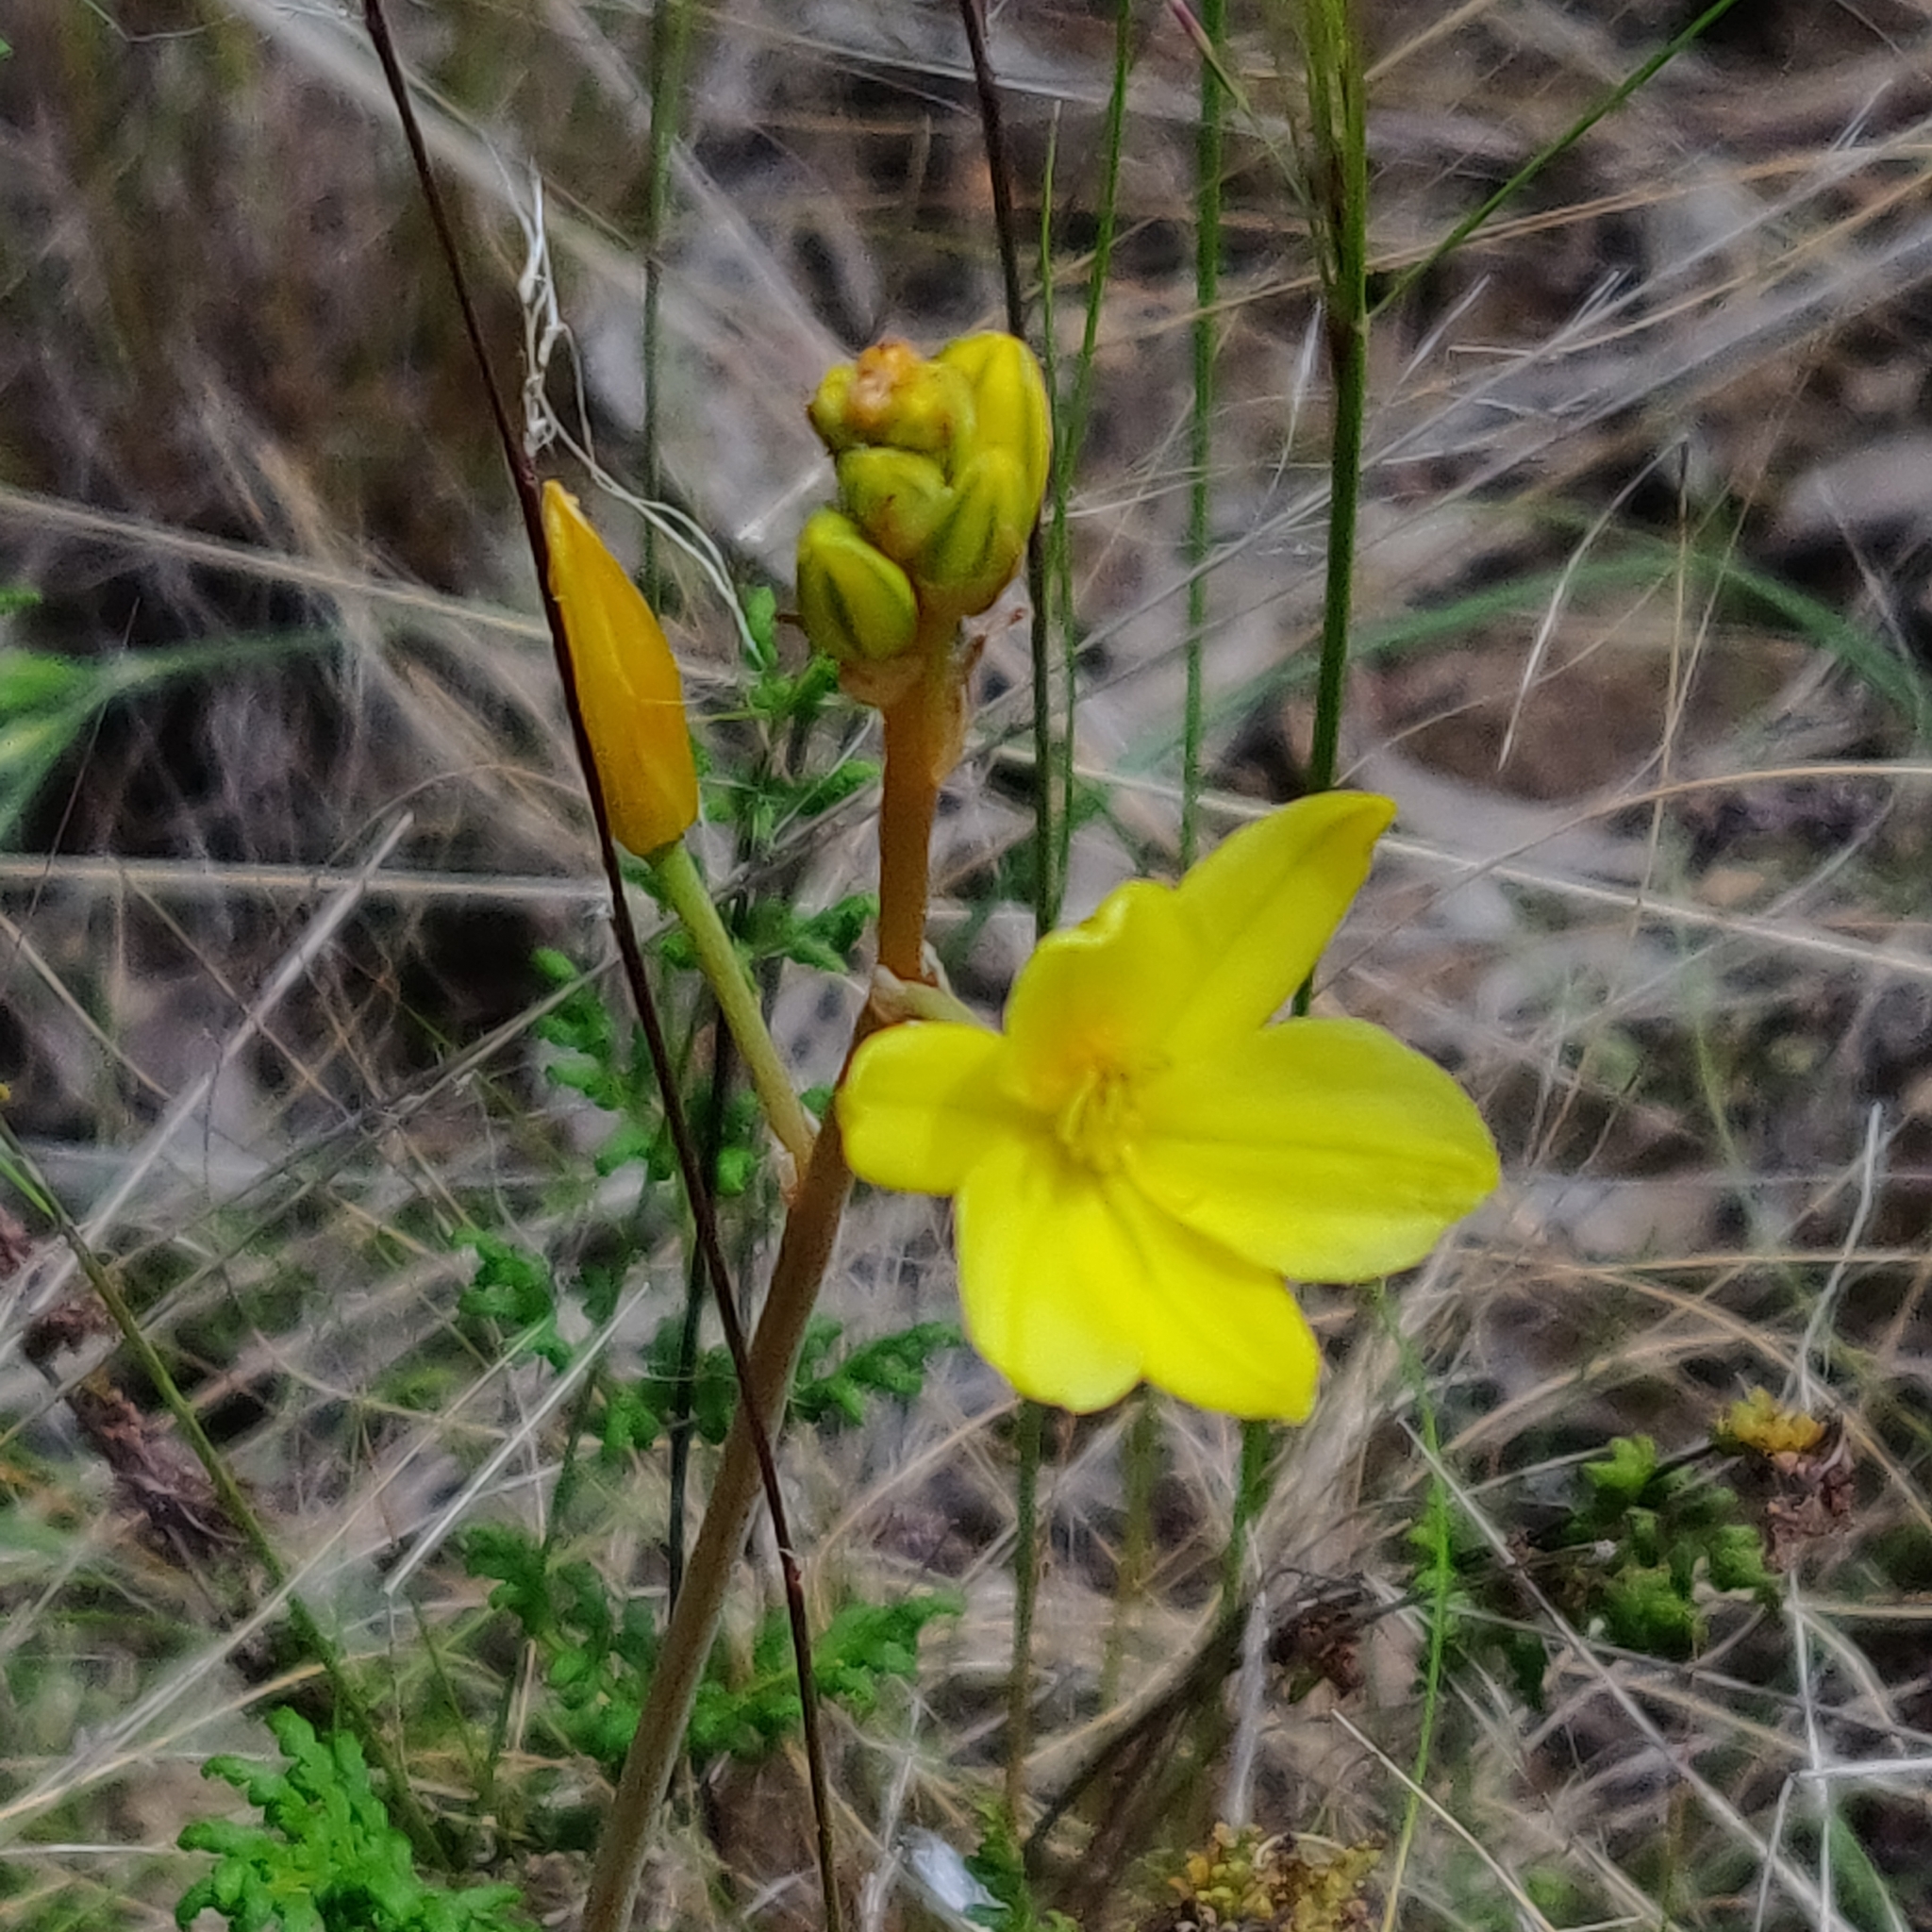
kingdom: Plantae
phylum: Tracheophyta
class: Liliopsida
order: Asparagales
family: Asphodelaceae
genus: Bulbine
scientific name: Bulbine glauca
